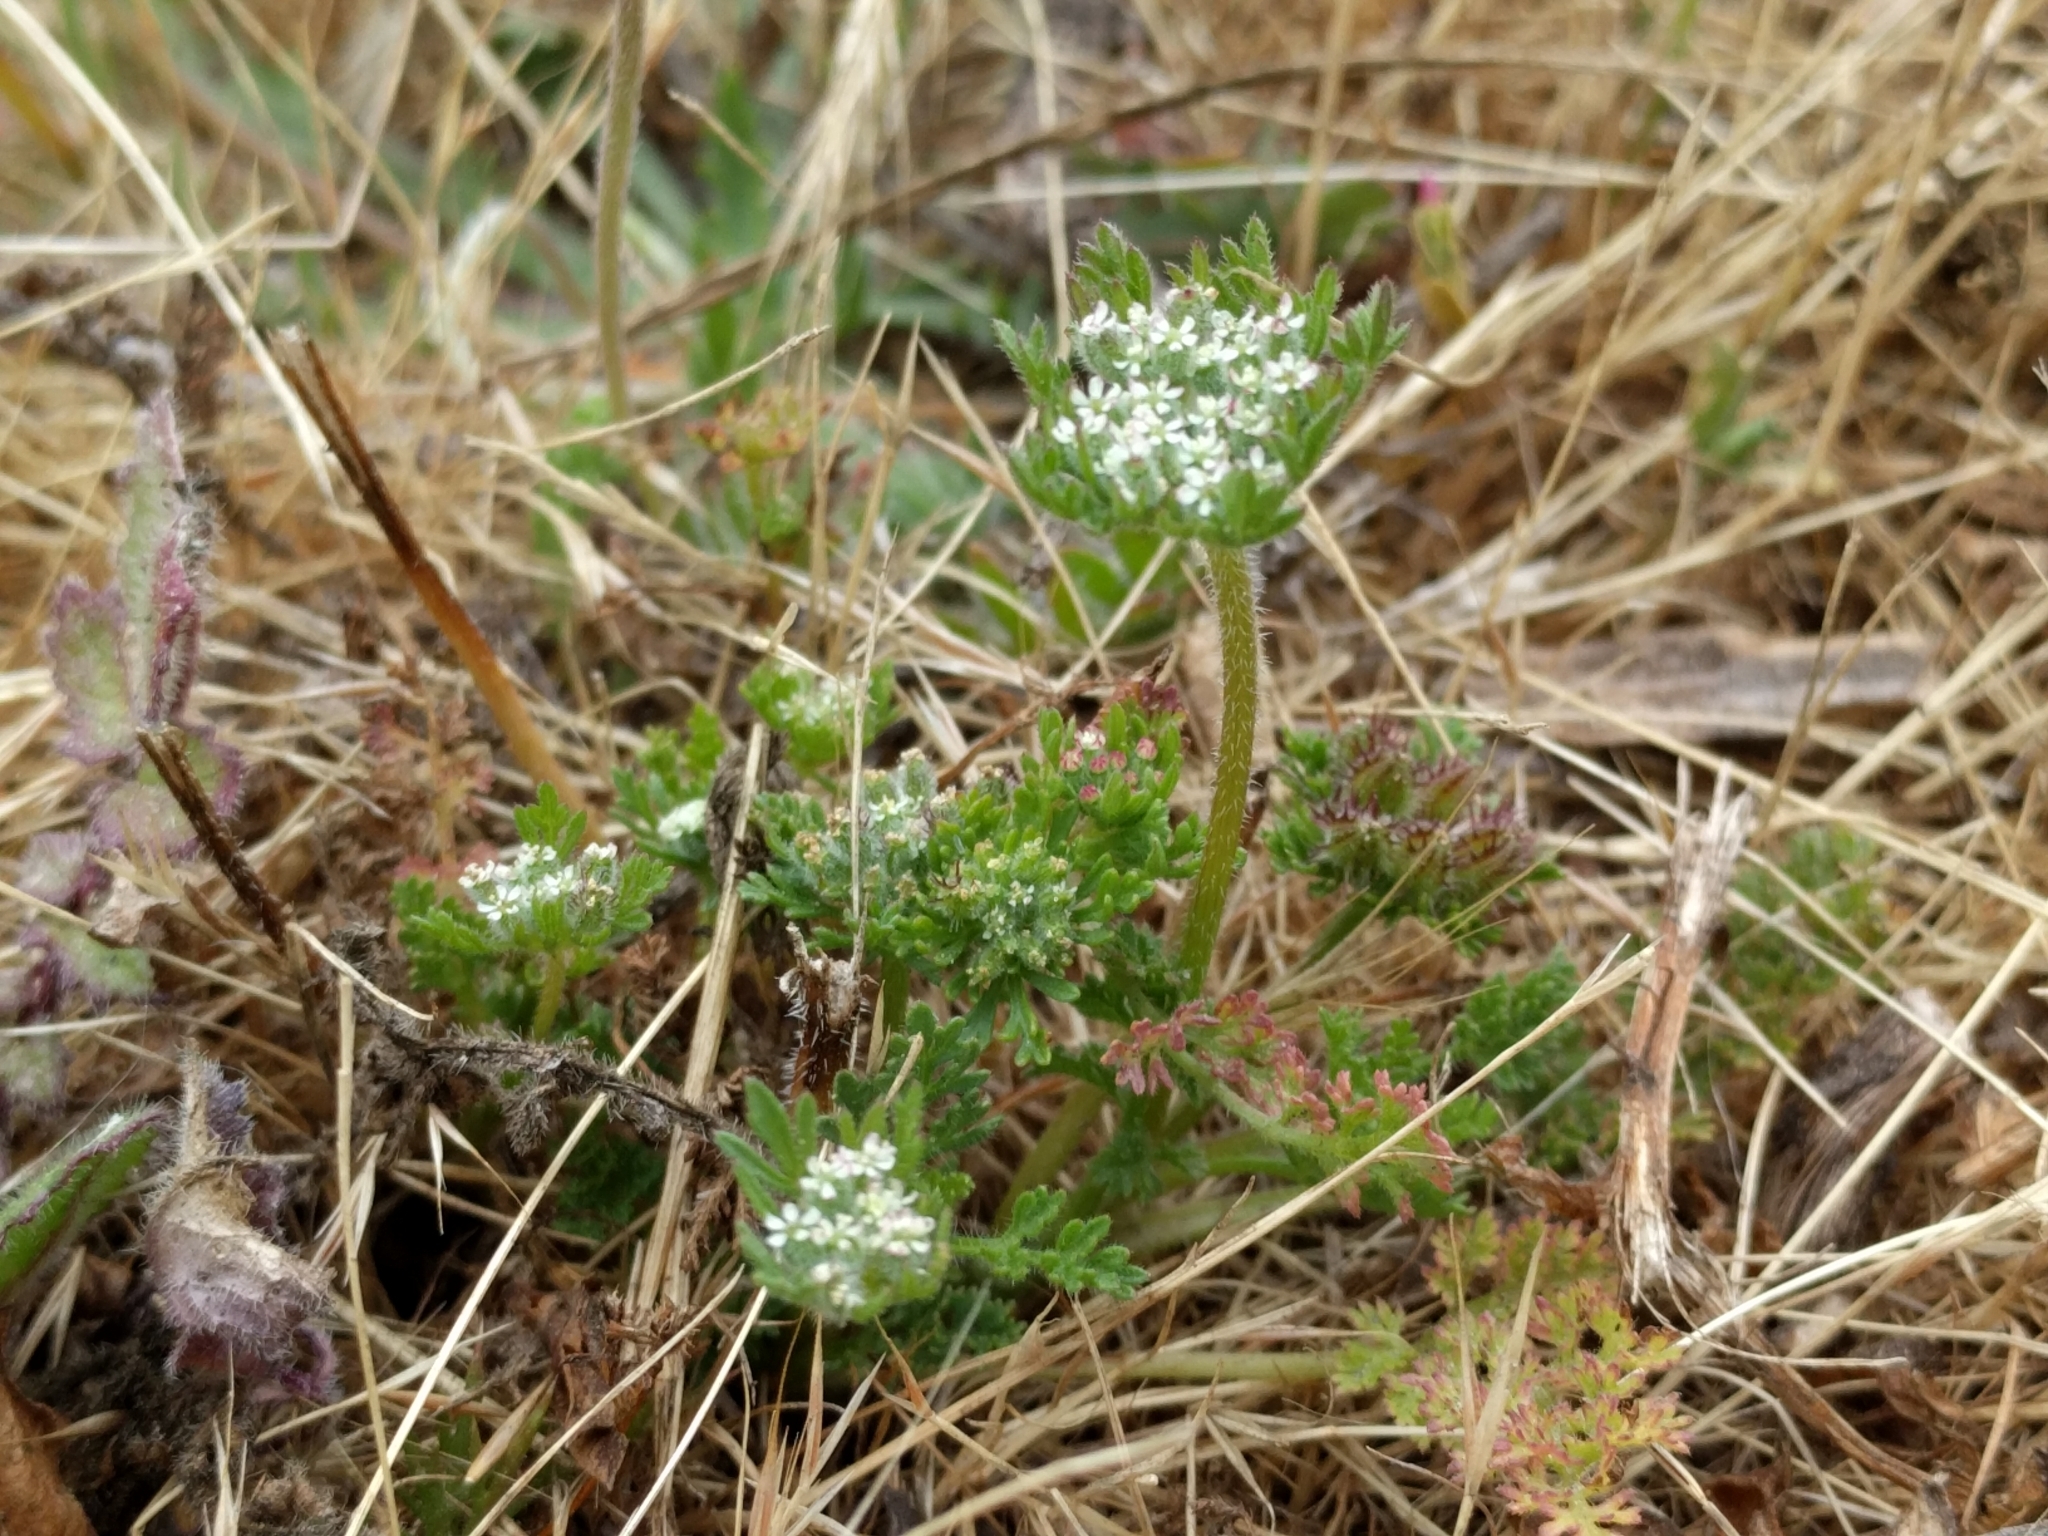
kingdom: Plantae
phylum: Tracheophyta
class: Magnoliopsida
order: Apiales
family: Apiaceae
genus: Daucus
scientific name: Daucus pusillus
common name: Southwest wild carrot
